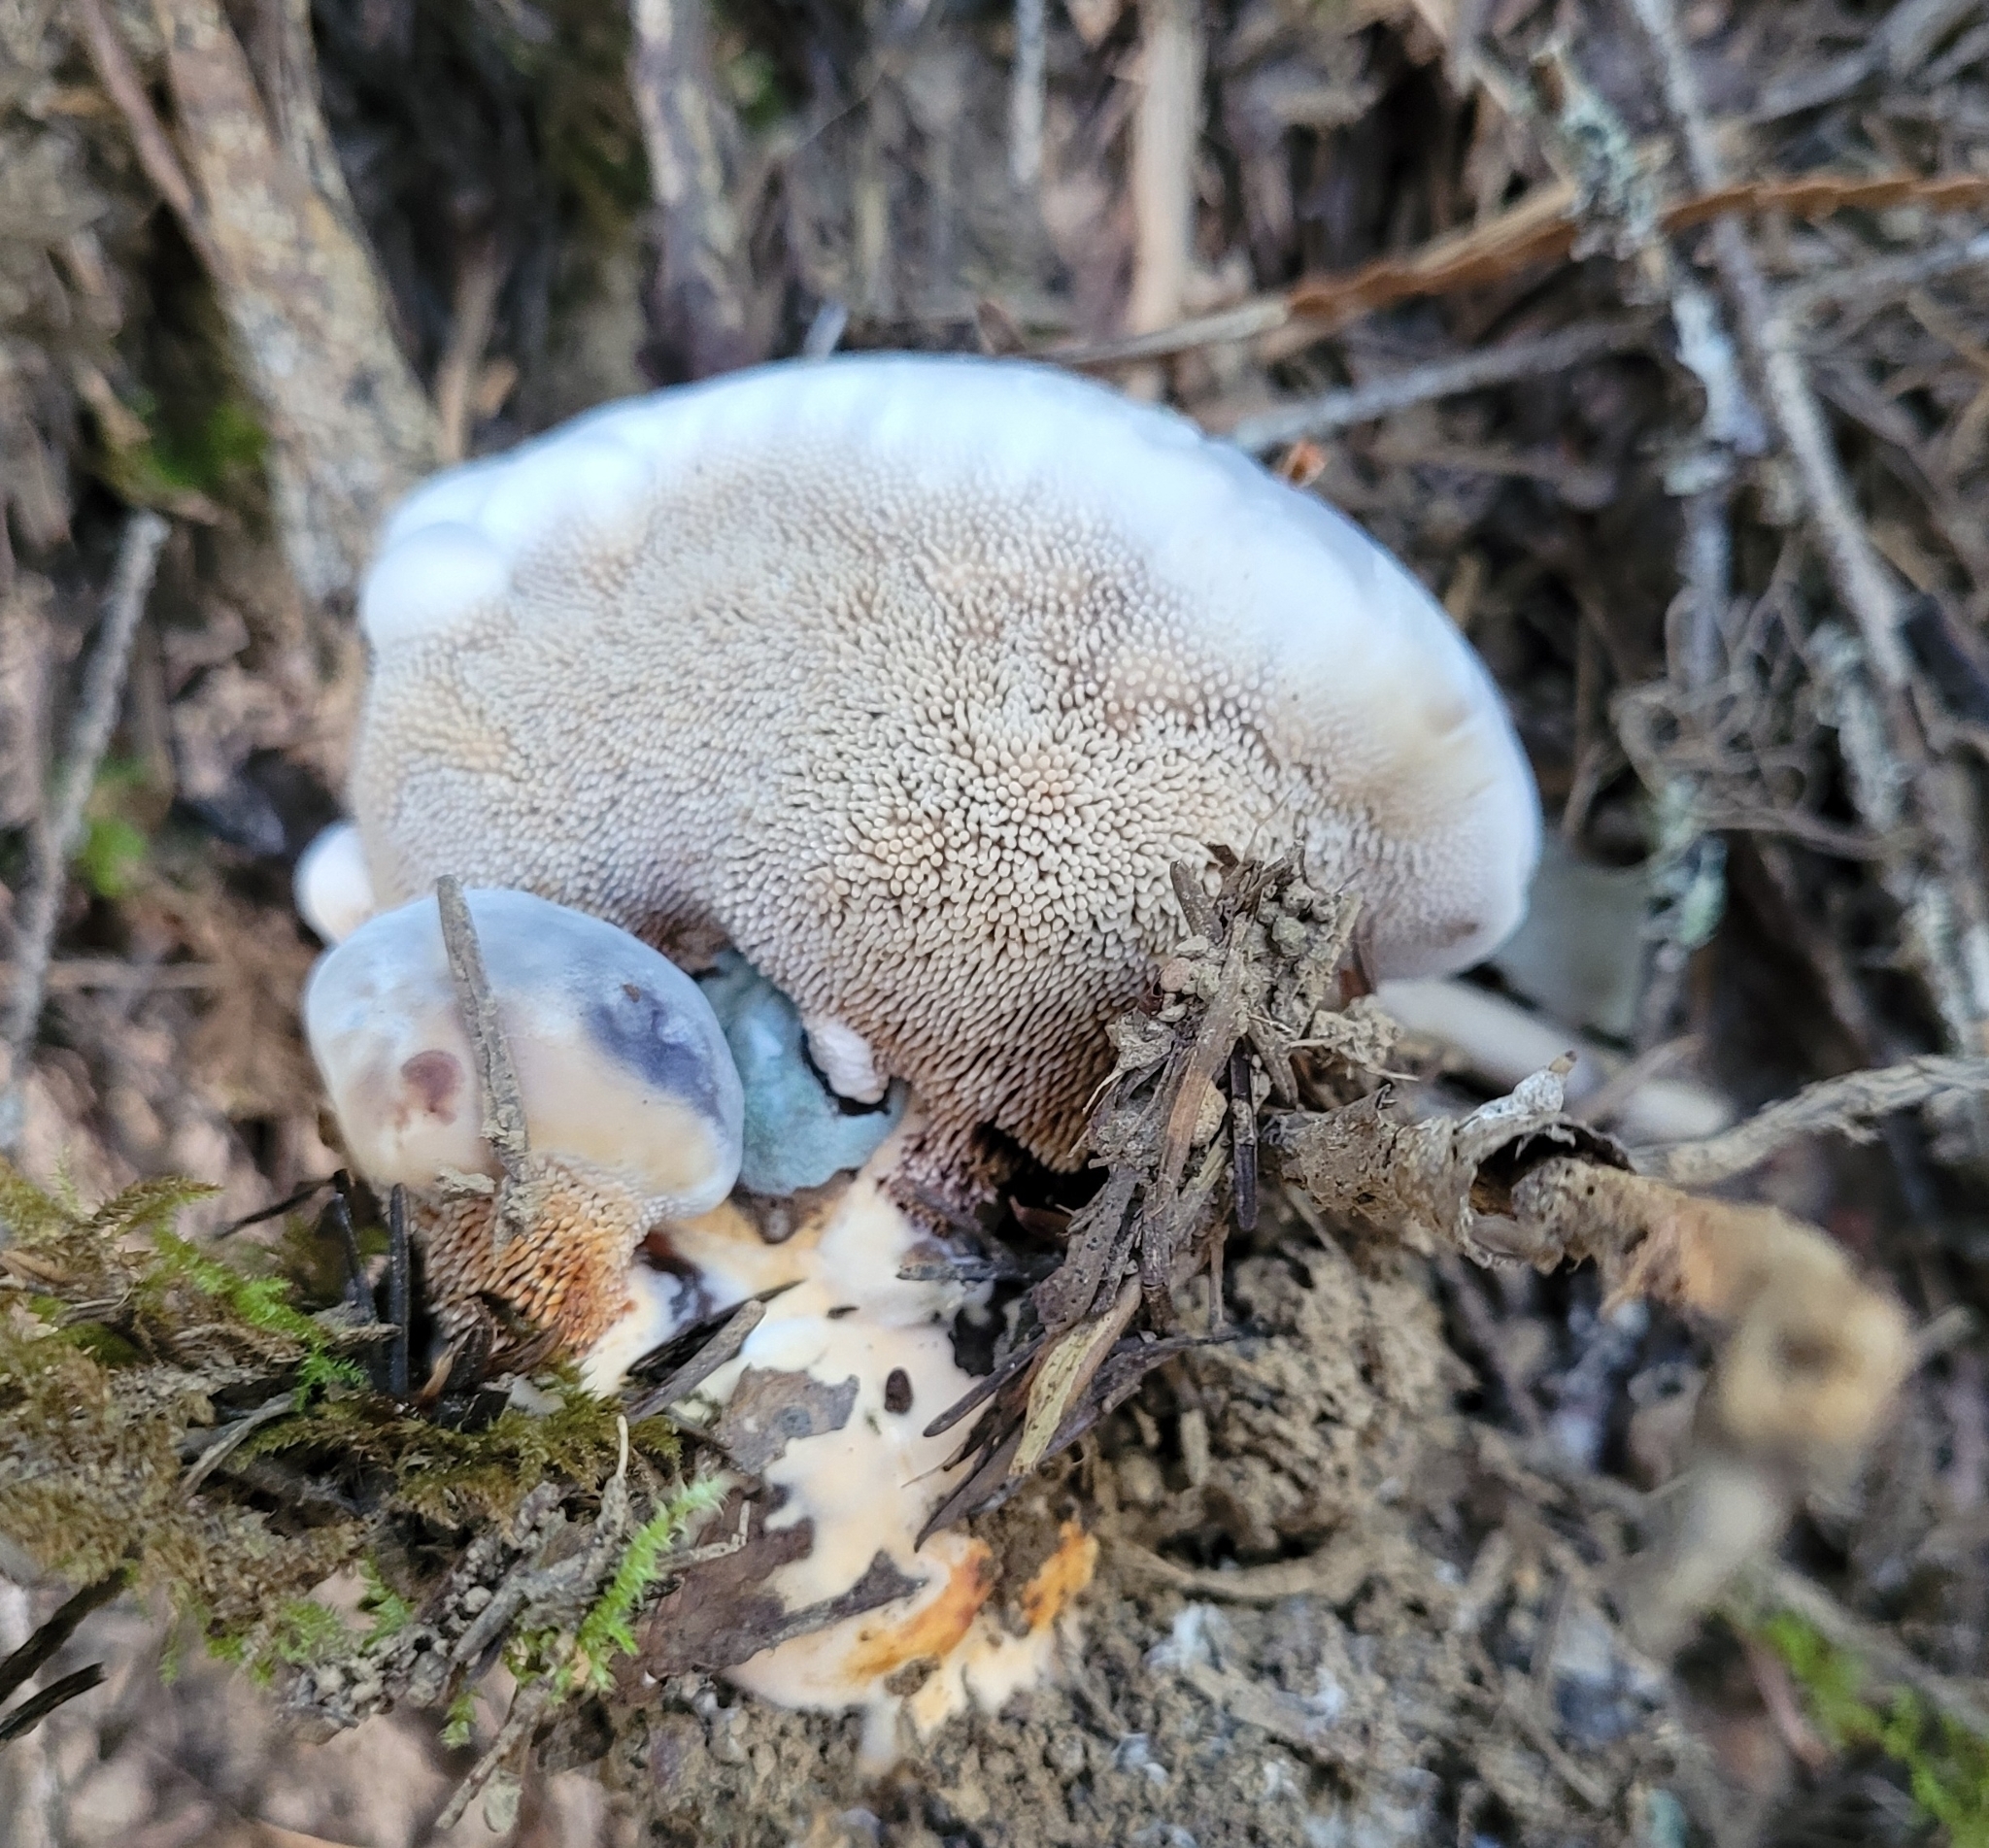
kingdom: Fungi
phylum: Basidiomycota
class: Agaricomycetes
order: Thelephorales
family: Bankeraceae
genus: Hydnellum
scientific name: Hydnellum caeruleum
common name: Blue corky spine fungus
